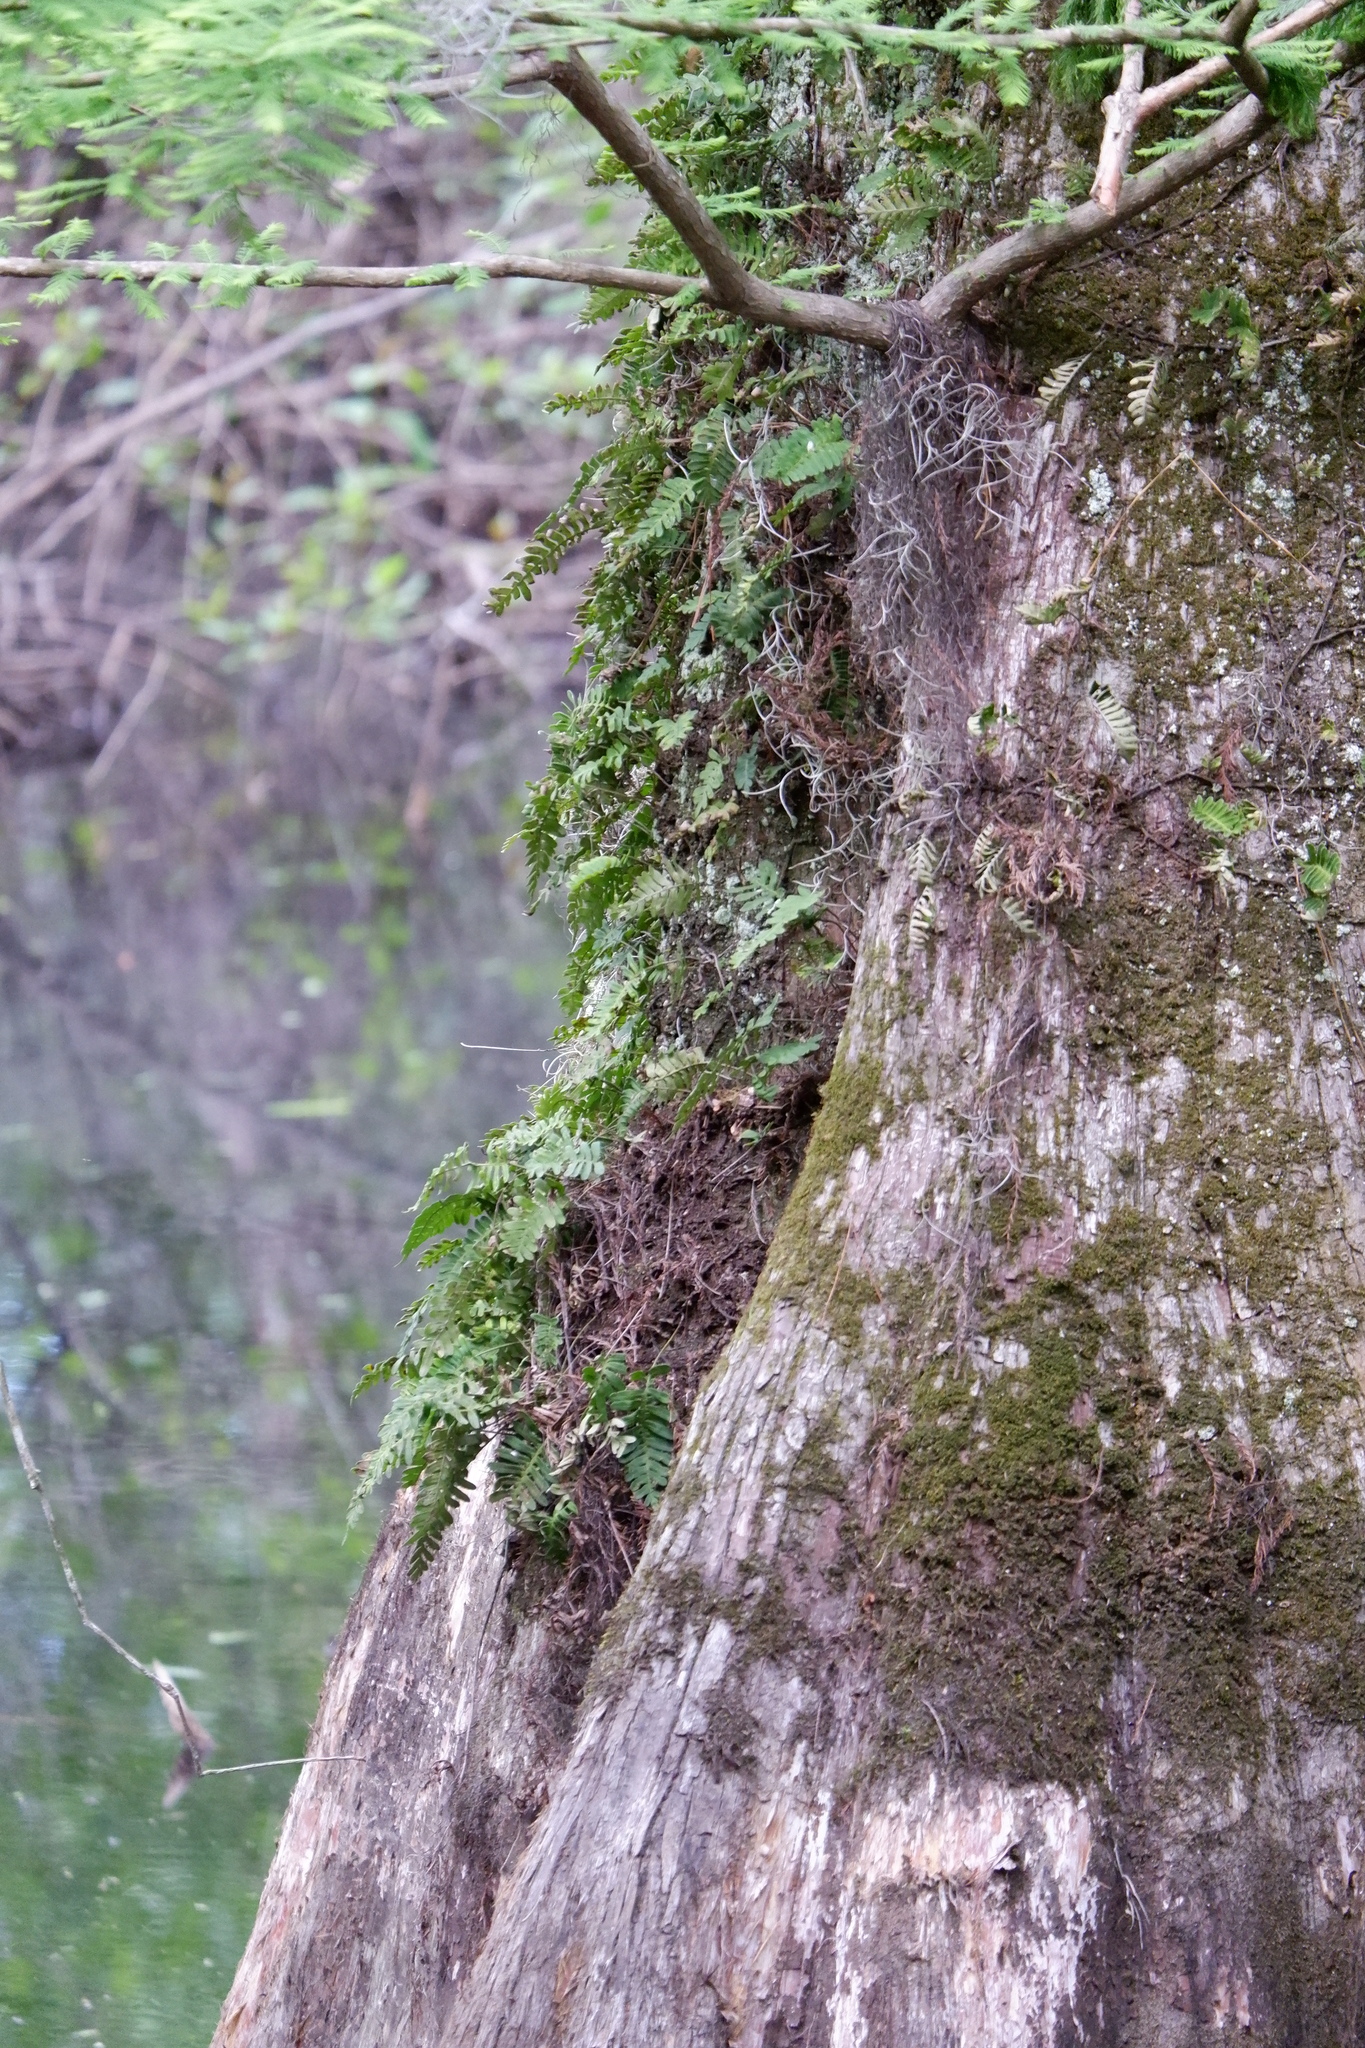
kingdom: Plantae
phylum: Tracheophyta
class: Polypodiopsida
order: Polypodiales
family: Polypodiaceae
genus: Pleopeltis
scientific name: Pleopeltis michauxiana
